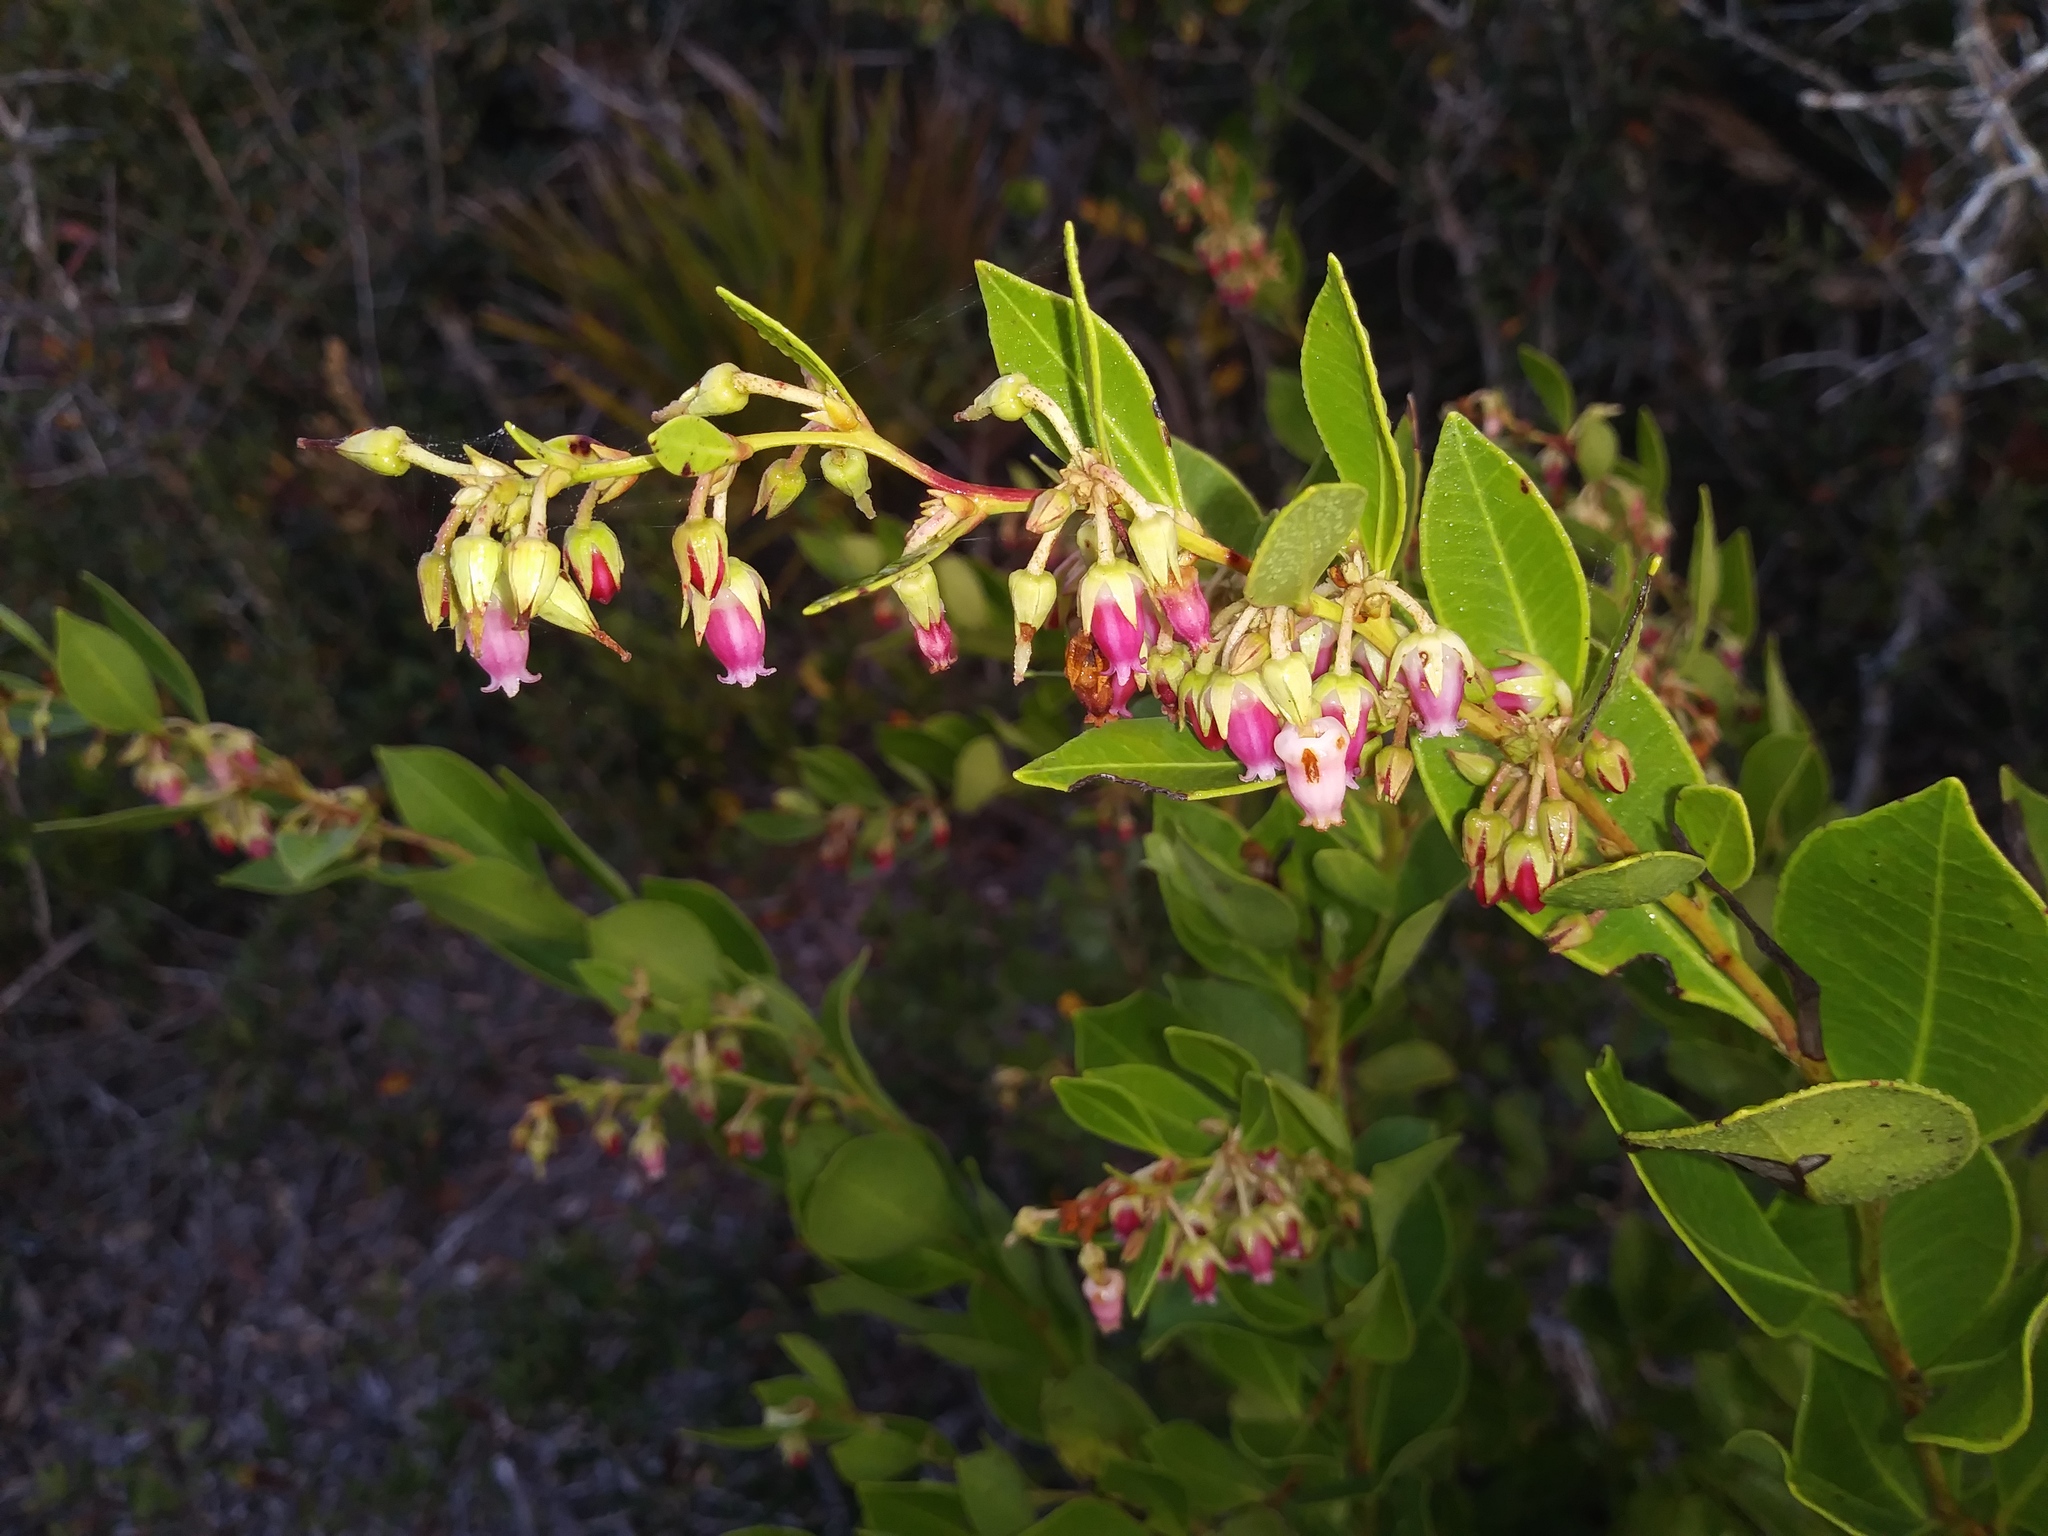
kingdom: Plantae
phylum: Tracheophyta
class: Magnoliopsida
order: Ericales
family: Ericaceae
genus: Lyonia
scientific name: Lyonia lucida
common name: Fetterbush
